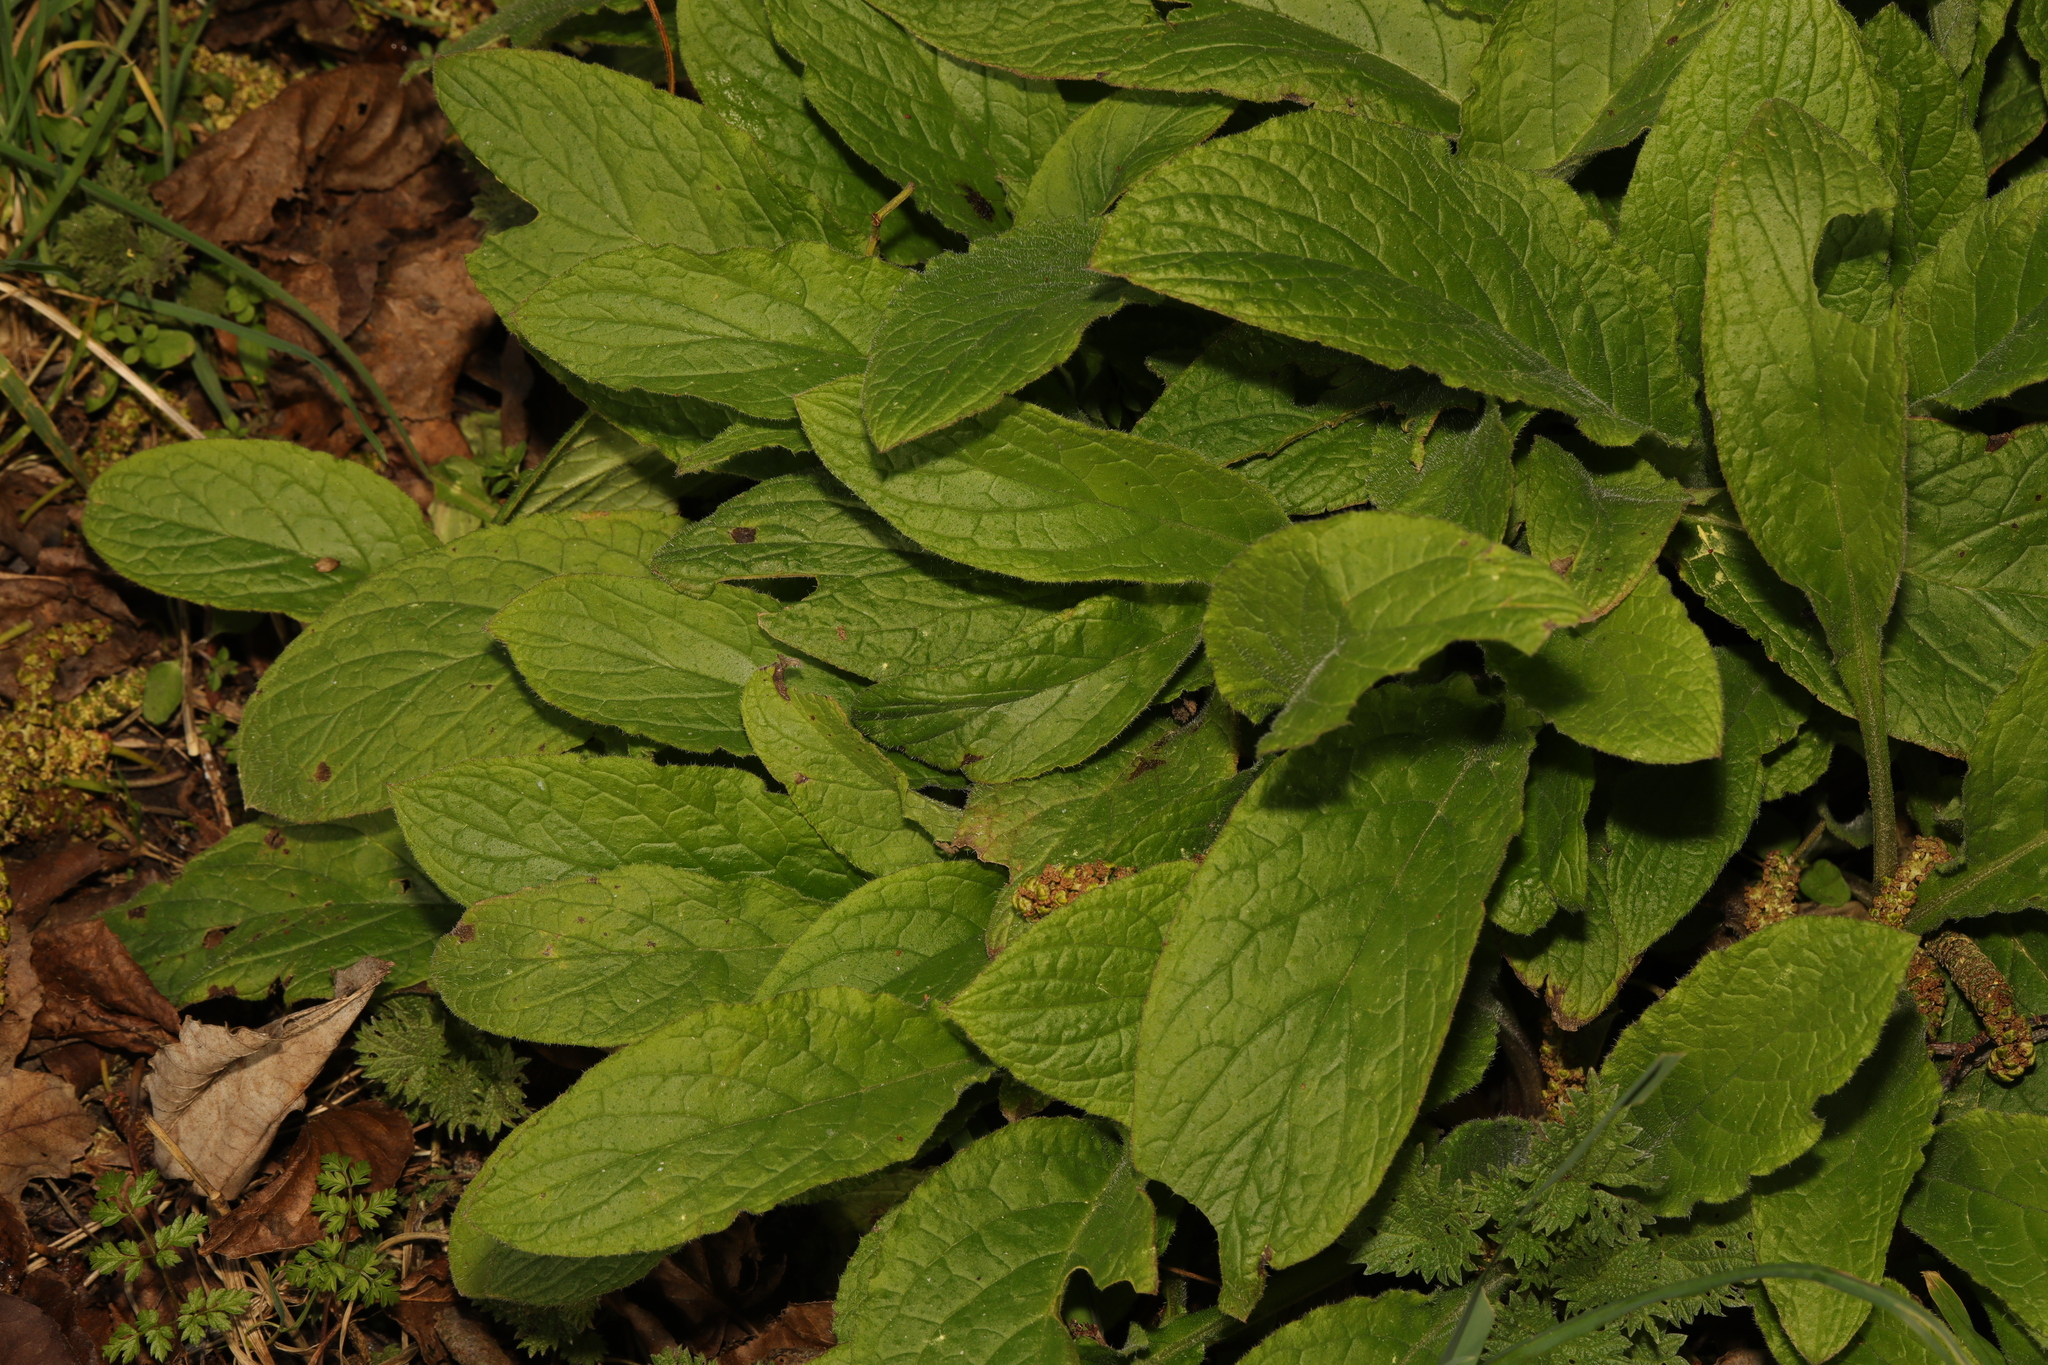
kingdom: Plantae
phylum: Tracheophyta
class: Magnoliopsida
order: Boraginales
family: Boraginaceae
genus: Pentaglottis
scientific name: Pentaglottis sempervirens
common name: Green alkanet
